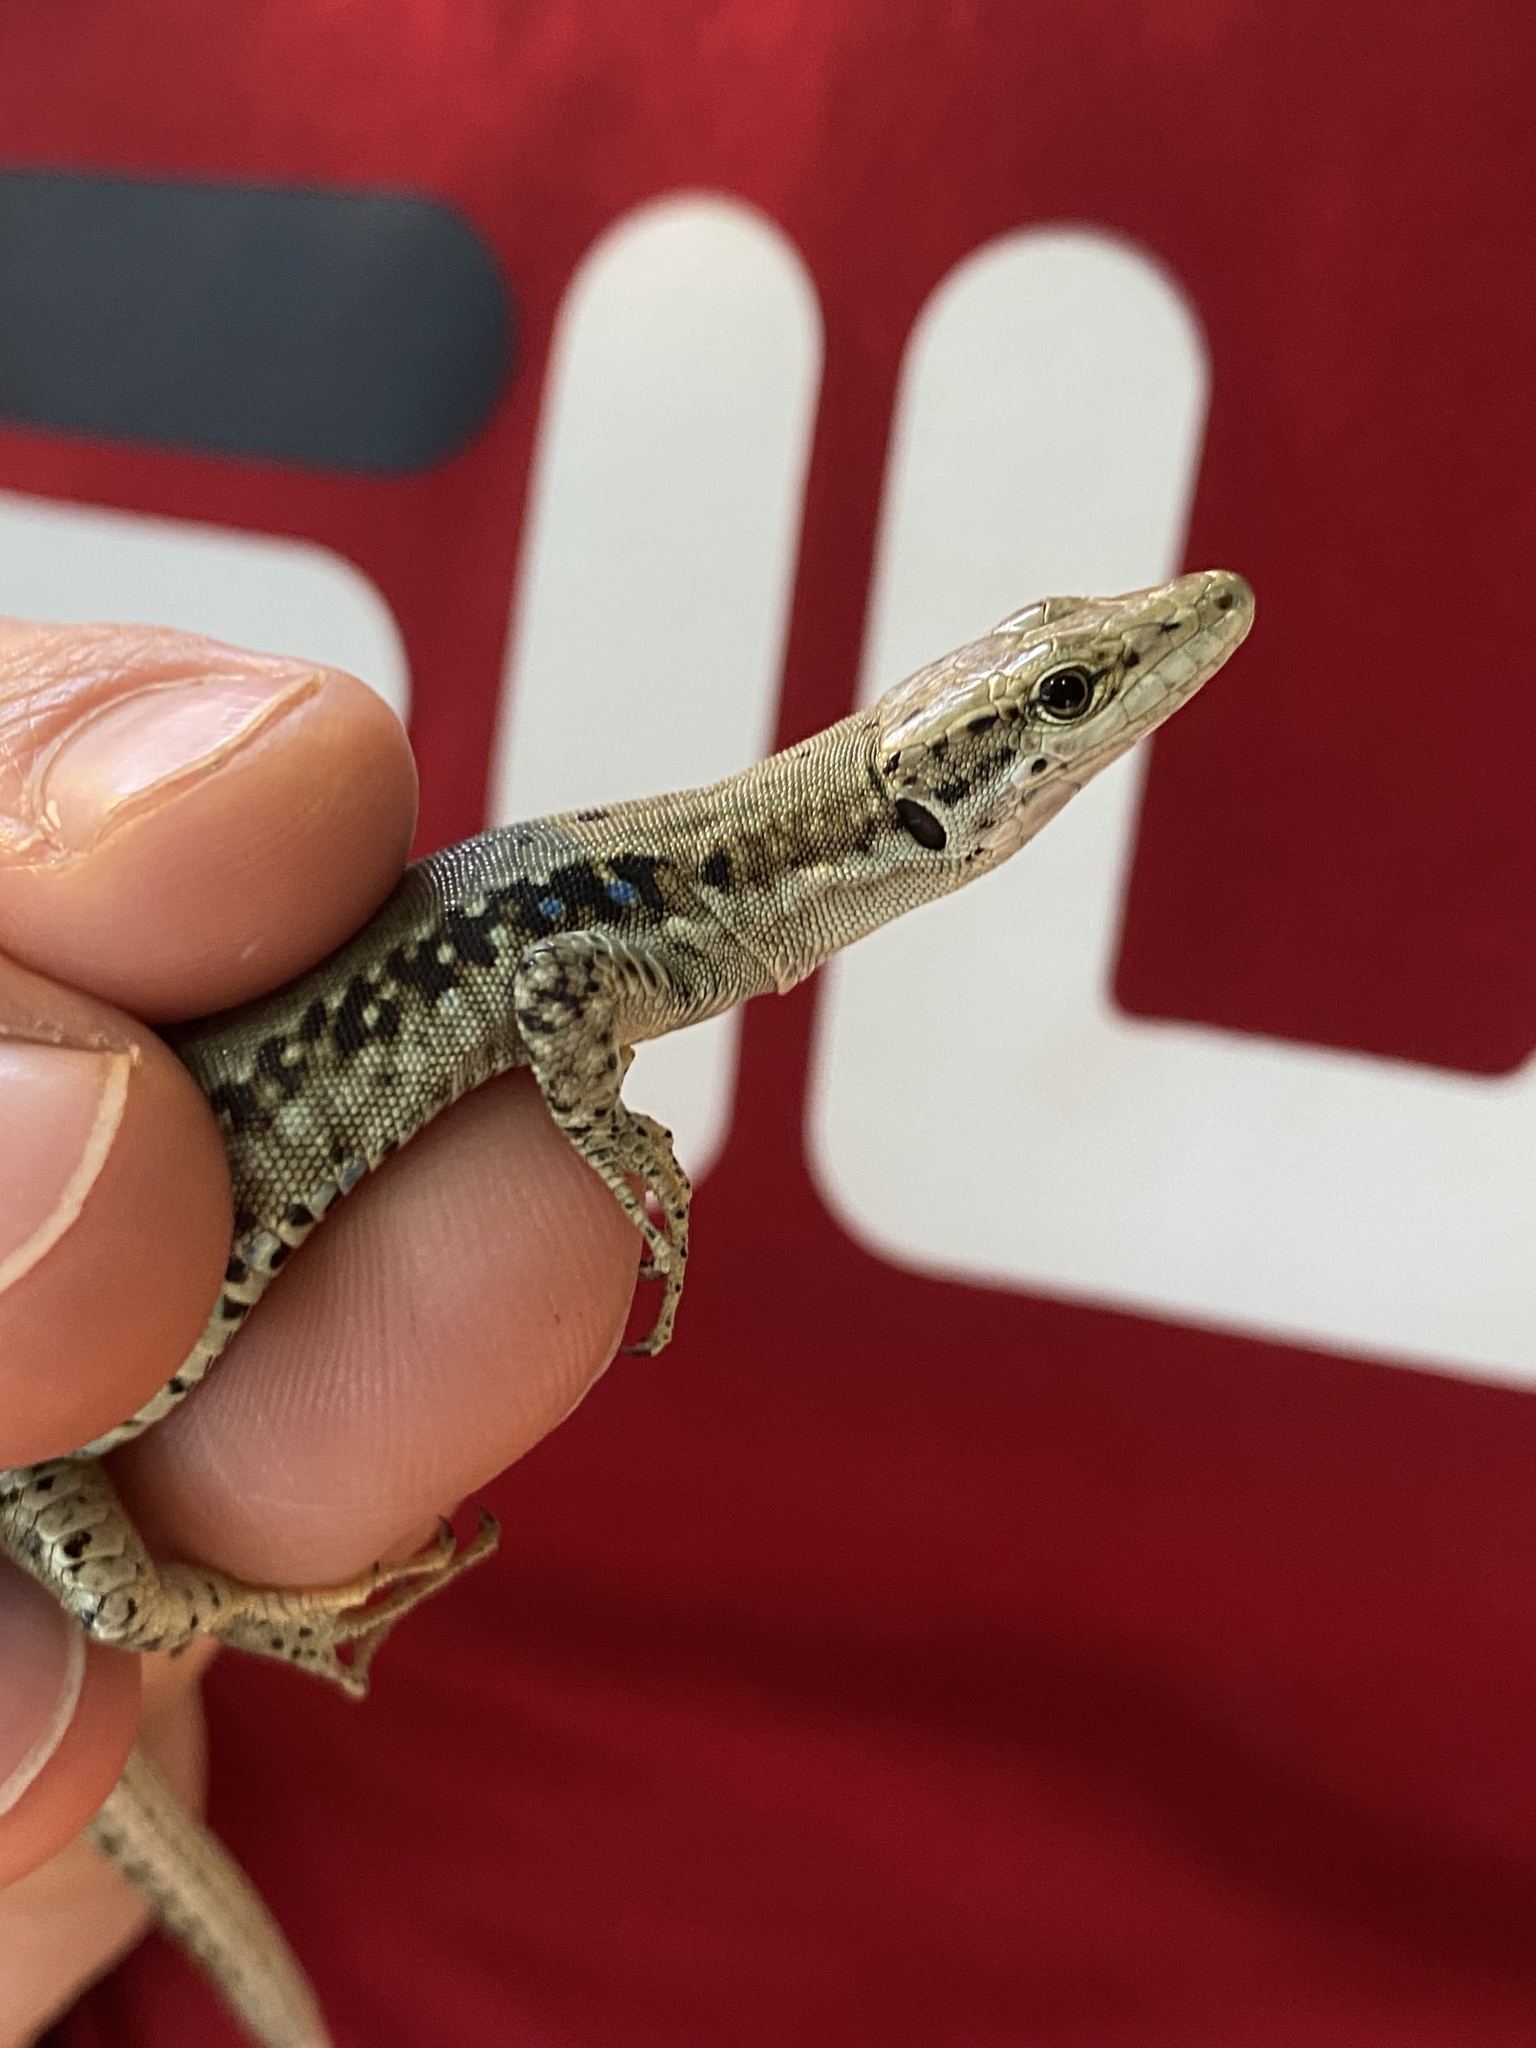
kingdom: Animalia
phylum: Chordata
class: Squamata
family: Lacertidae
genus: Darevskia
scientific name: Darevskia szczerbaki
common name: Szczerbak‘s lizard
